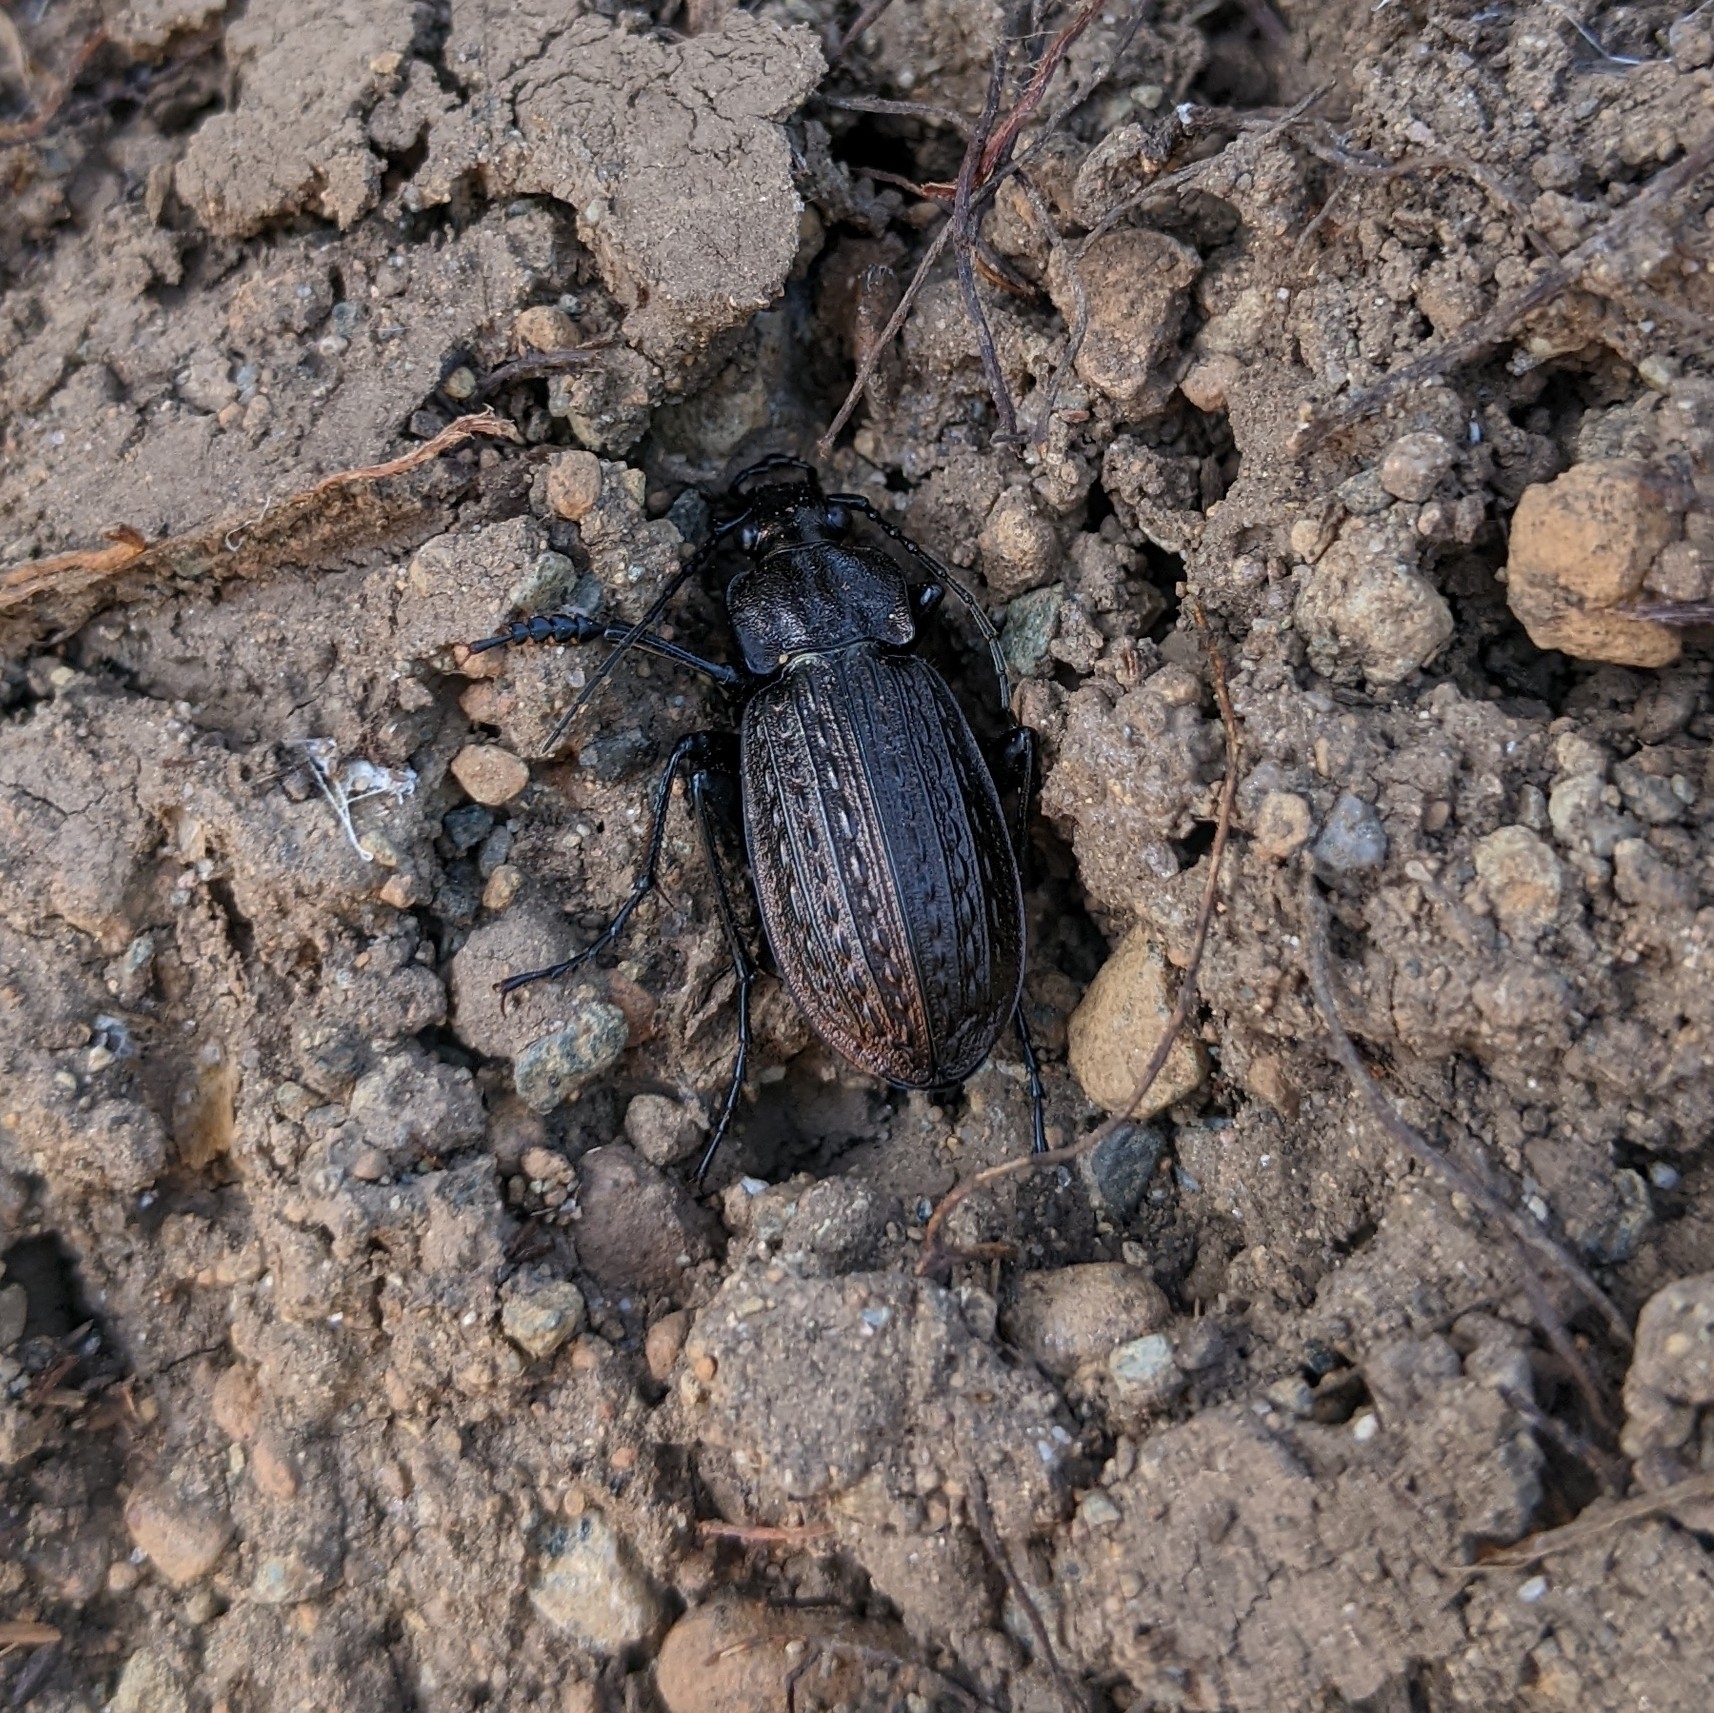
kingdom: Animalia
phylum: Arthropoda
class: Insecta
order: Coleoptera
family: Carabidae
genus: Carabus
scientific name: Carabus granulatus
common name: Granulate ground beetle
